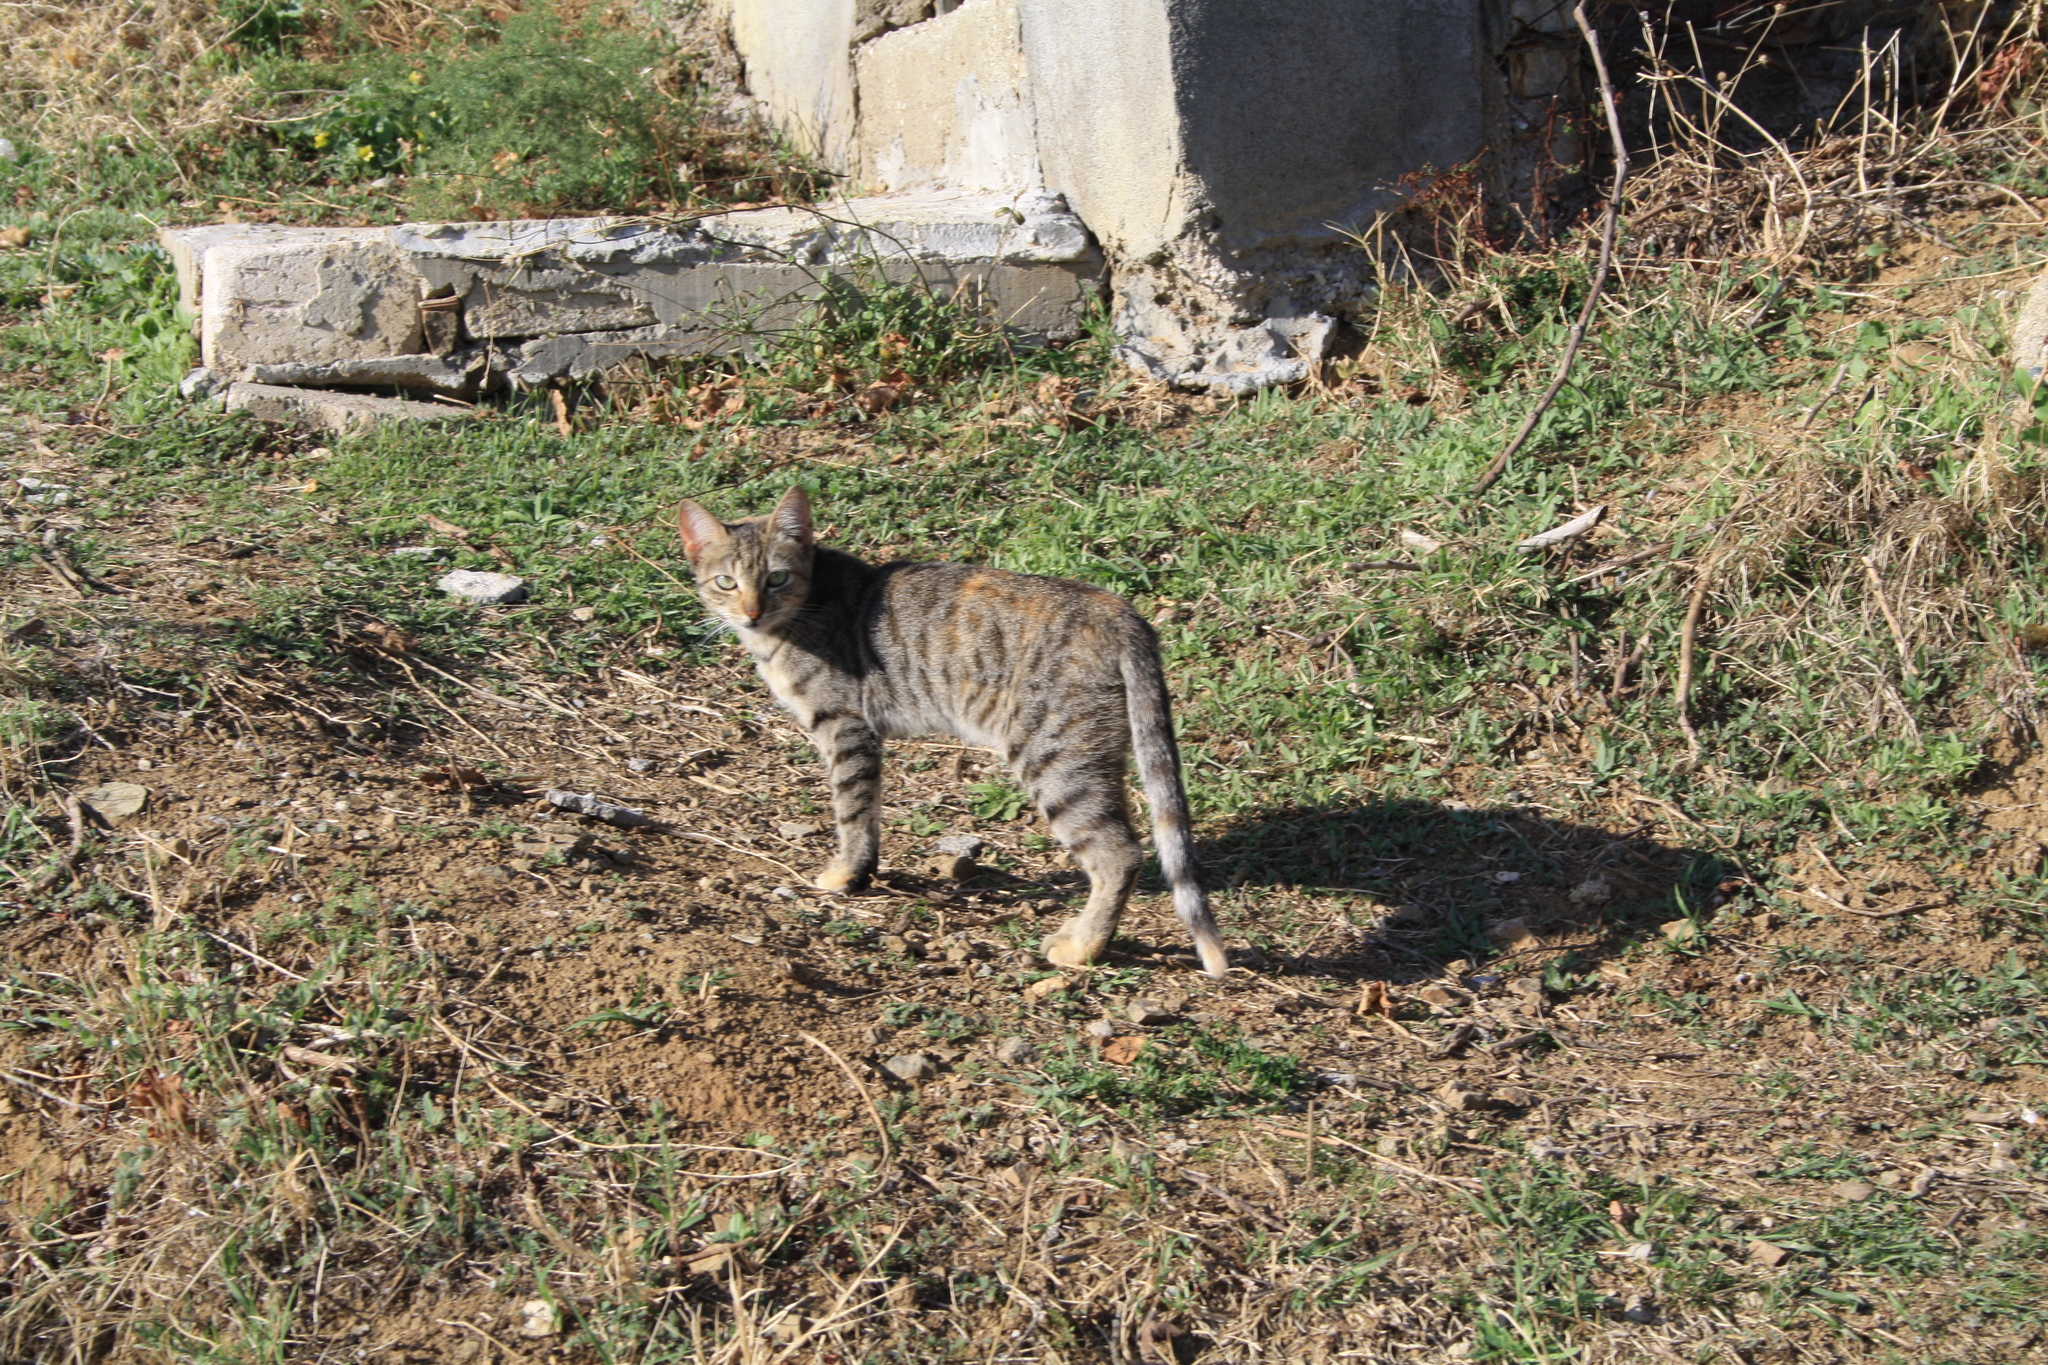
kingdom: Animalia
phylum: Chordata
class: Mammalia
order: Carnivora
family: Felidae
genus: Felis
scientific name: Felis catus
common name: Domestic cat
